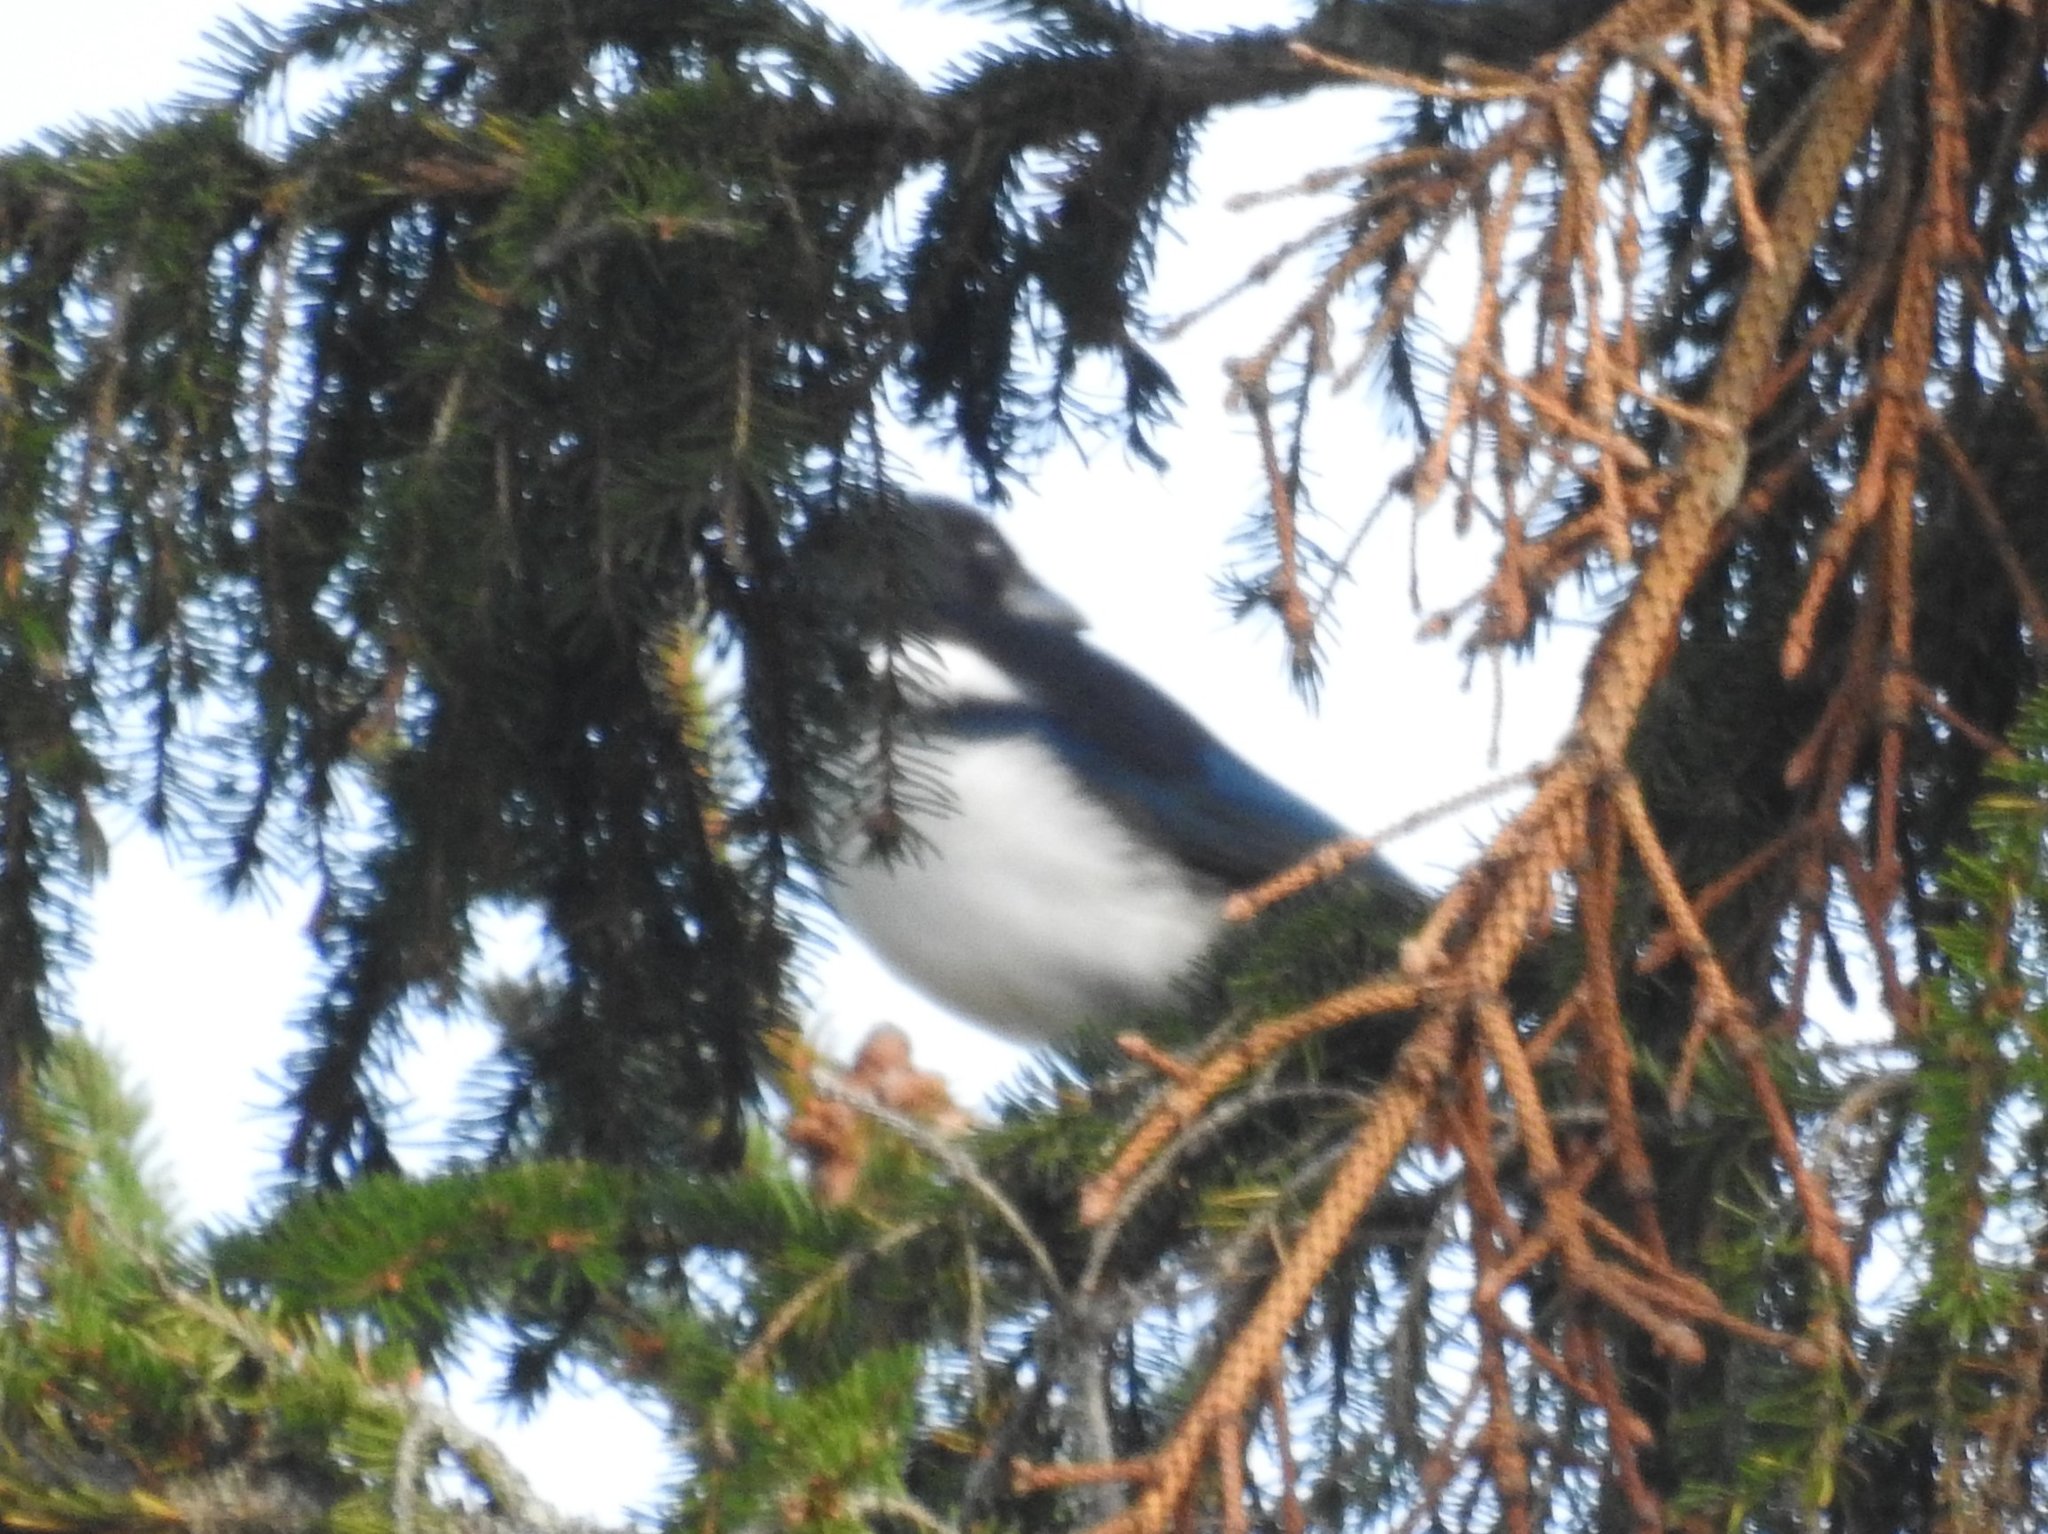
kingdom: Animalia
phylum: Chordata
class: Aves
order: Passeriformes
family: Corvidae
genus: Pica
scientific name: Pica pica
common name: Eurasian magpie
